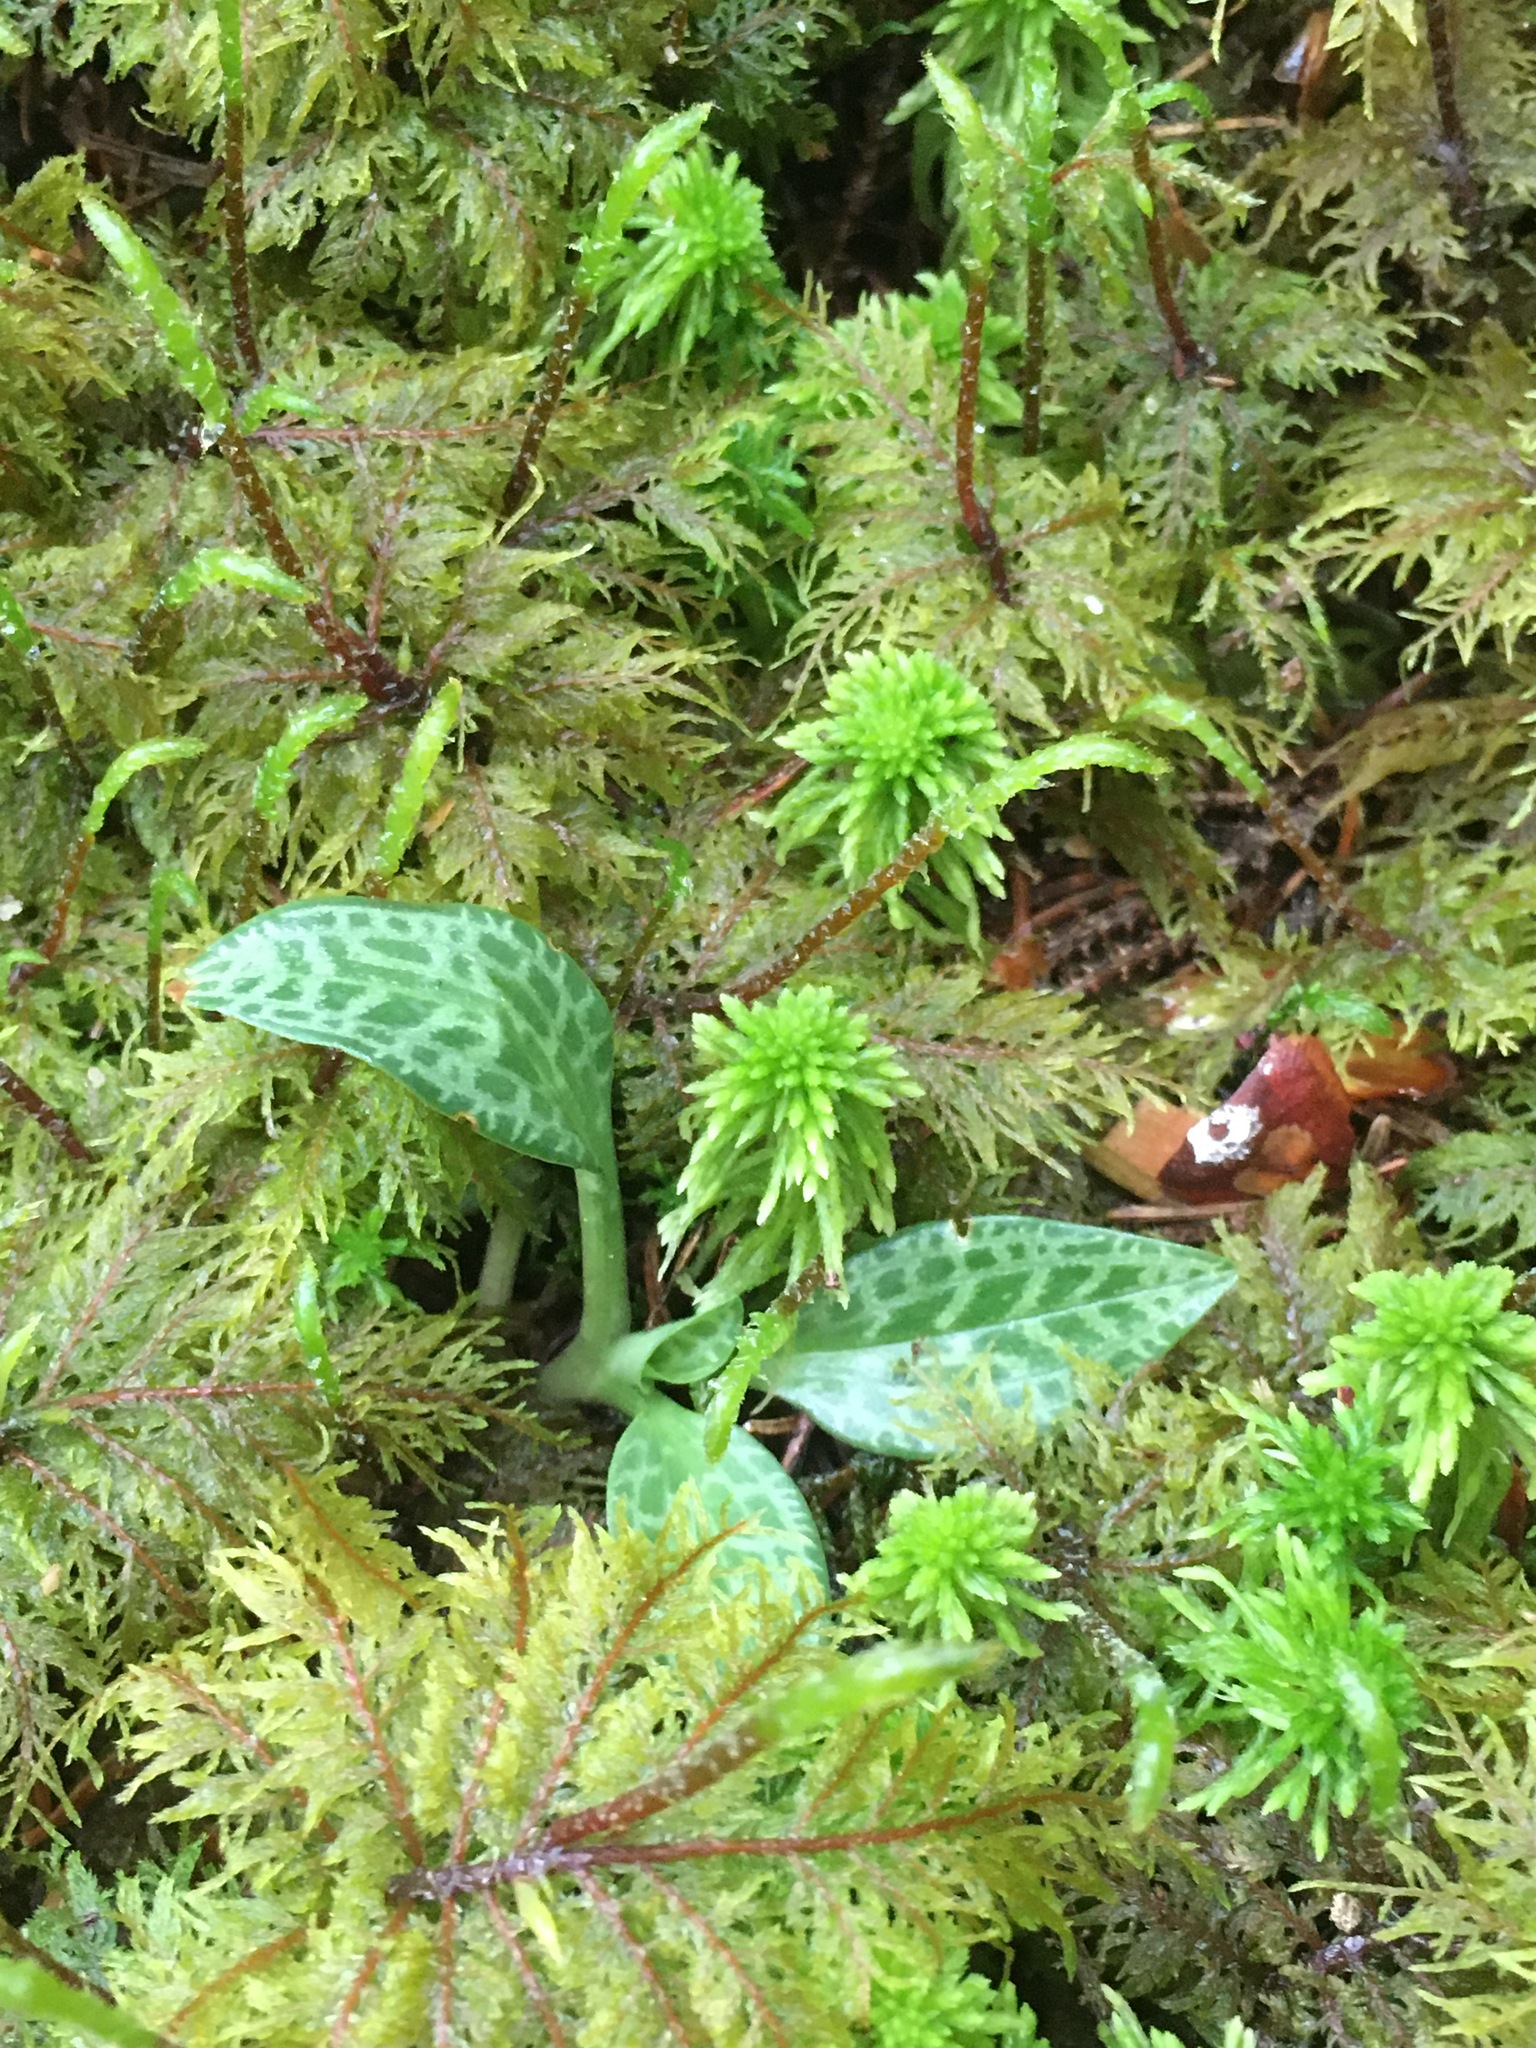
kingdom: Plantae
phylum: Tracheophyta
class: Liliopsida
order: Asparagales
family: Orchidaceae
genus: Goodyera
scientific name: Goodyera tesselata
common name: Checkered rattlesnake-plantain
